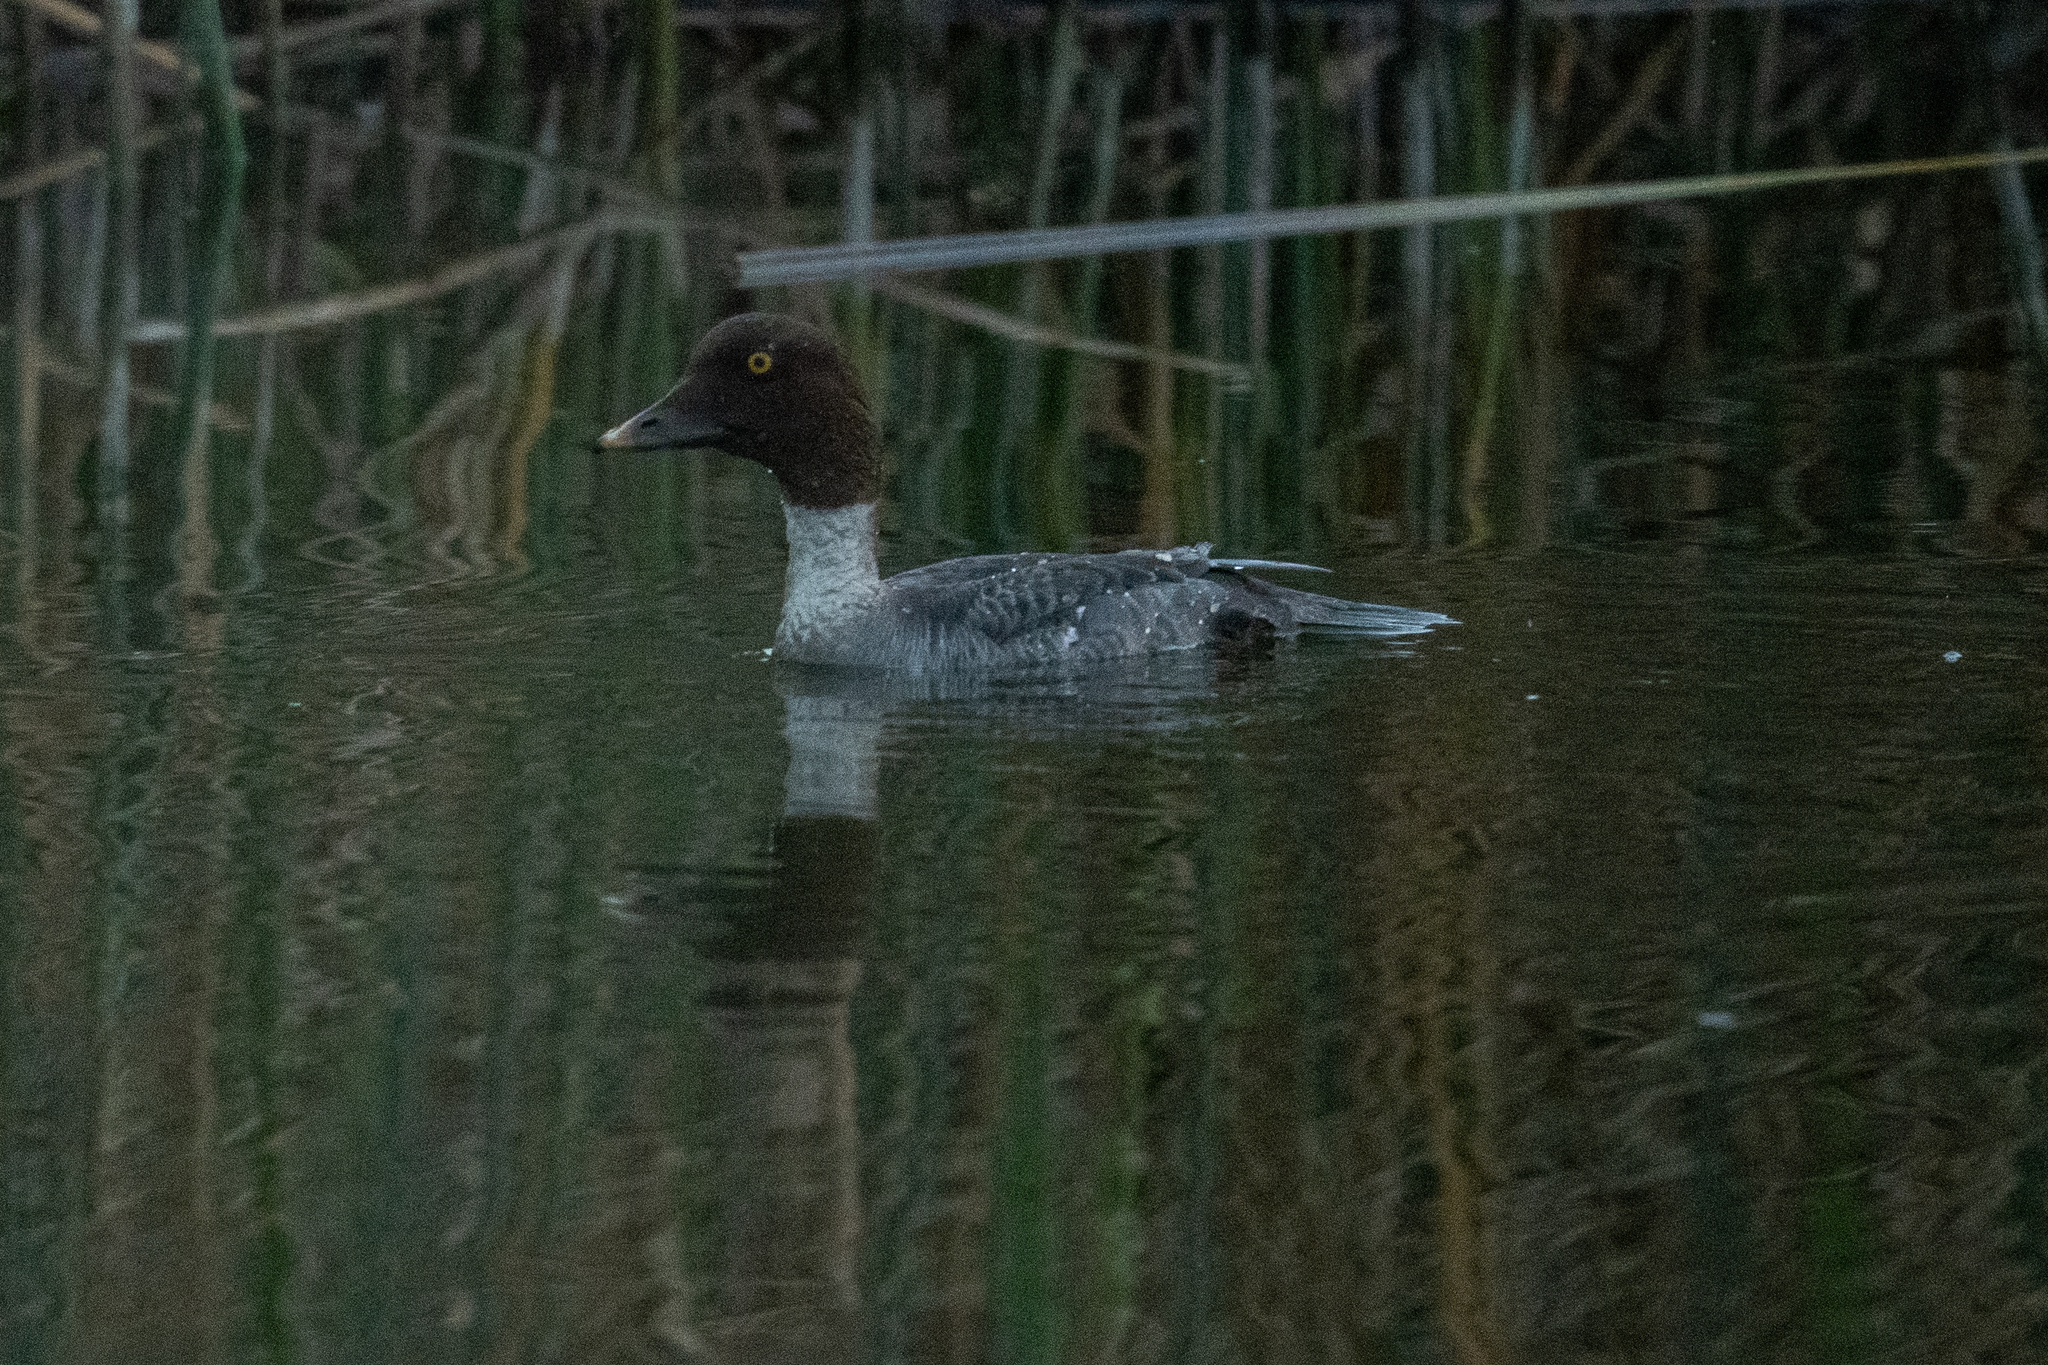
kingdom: Animalia
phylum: Chordata
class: Aves
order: Anseriformes
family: Anatidae
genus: Bucephala
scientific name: Bucephala clangula
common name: Common goldeneye
